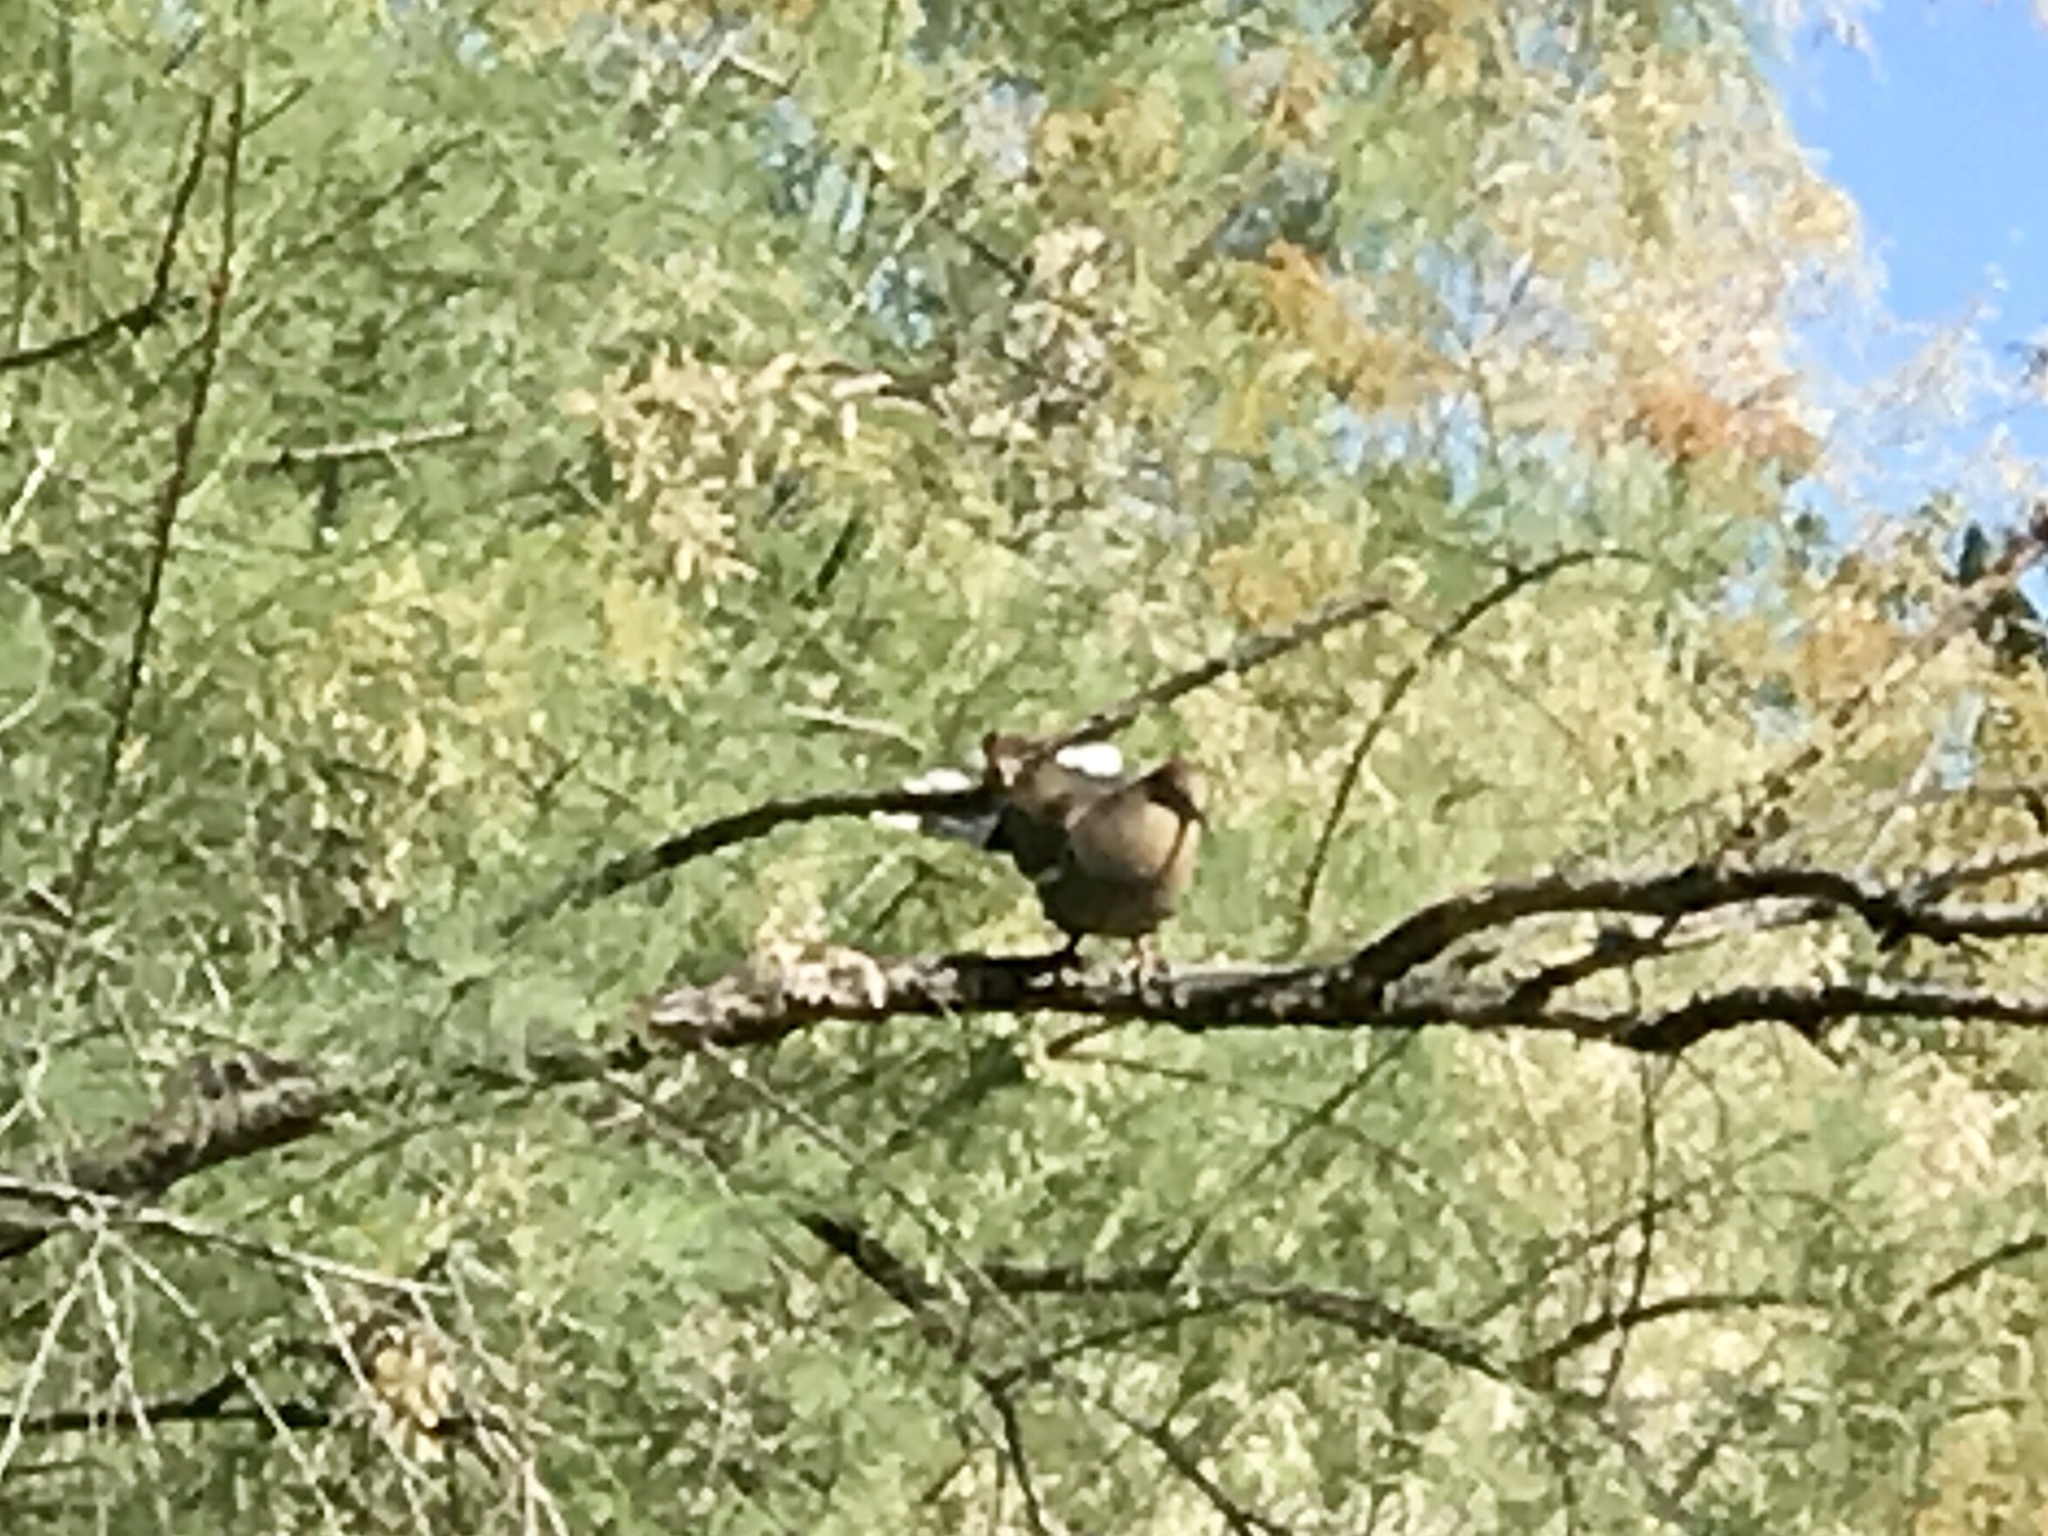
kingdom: Animalia
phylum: Chordata
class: Aves
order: Columbiformes
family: Columbidae
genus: Zenaida
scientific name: Zenaida asiatica
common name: White-winged dove
